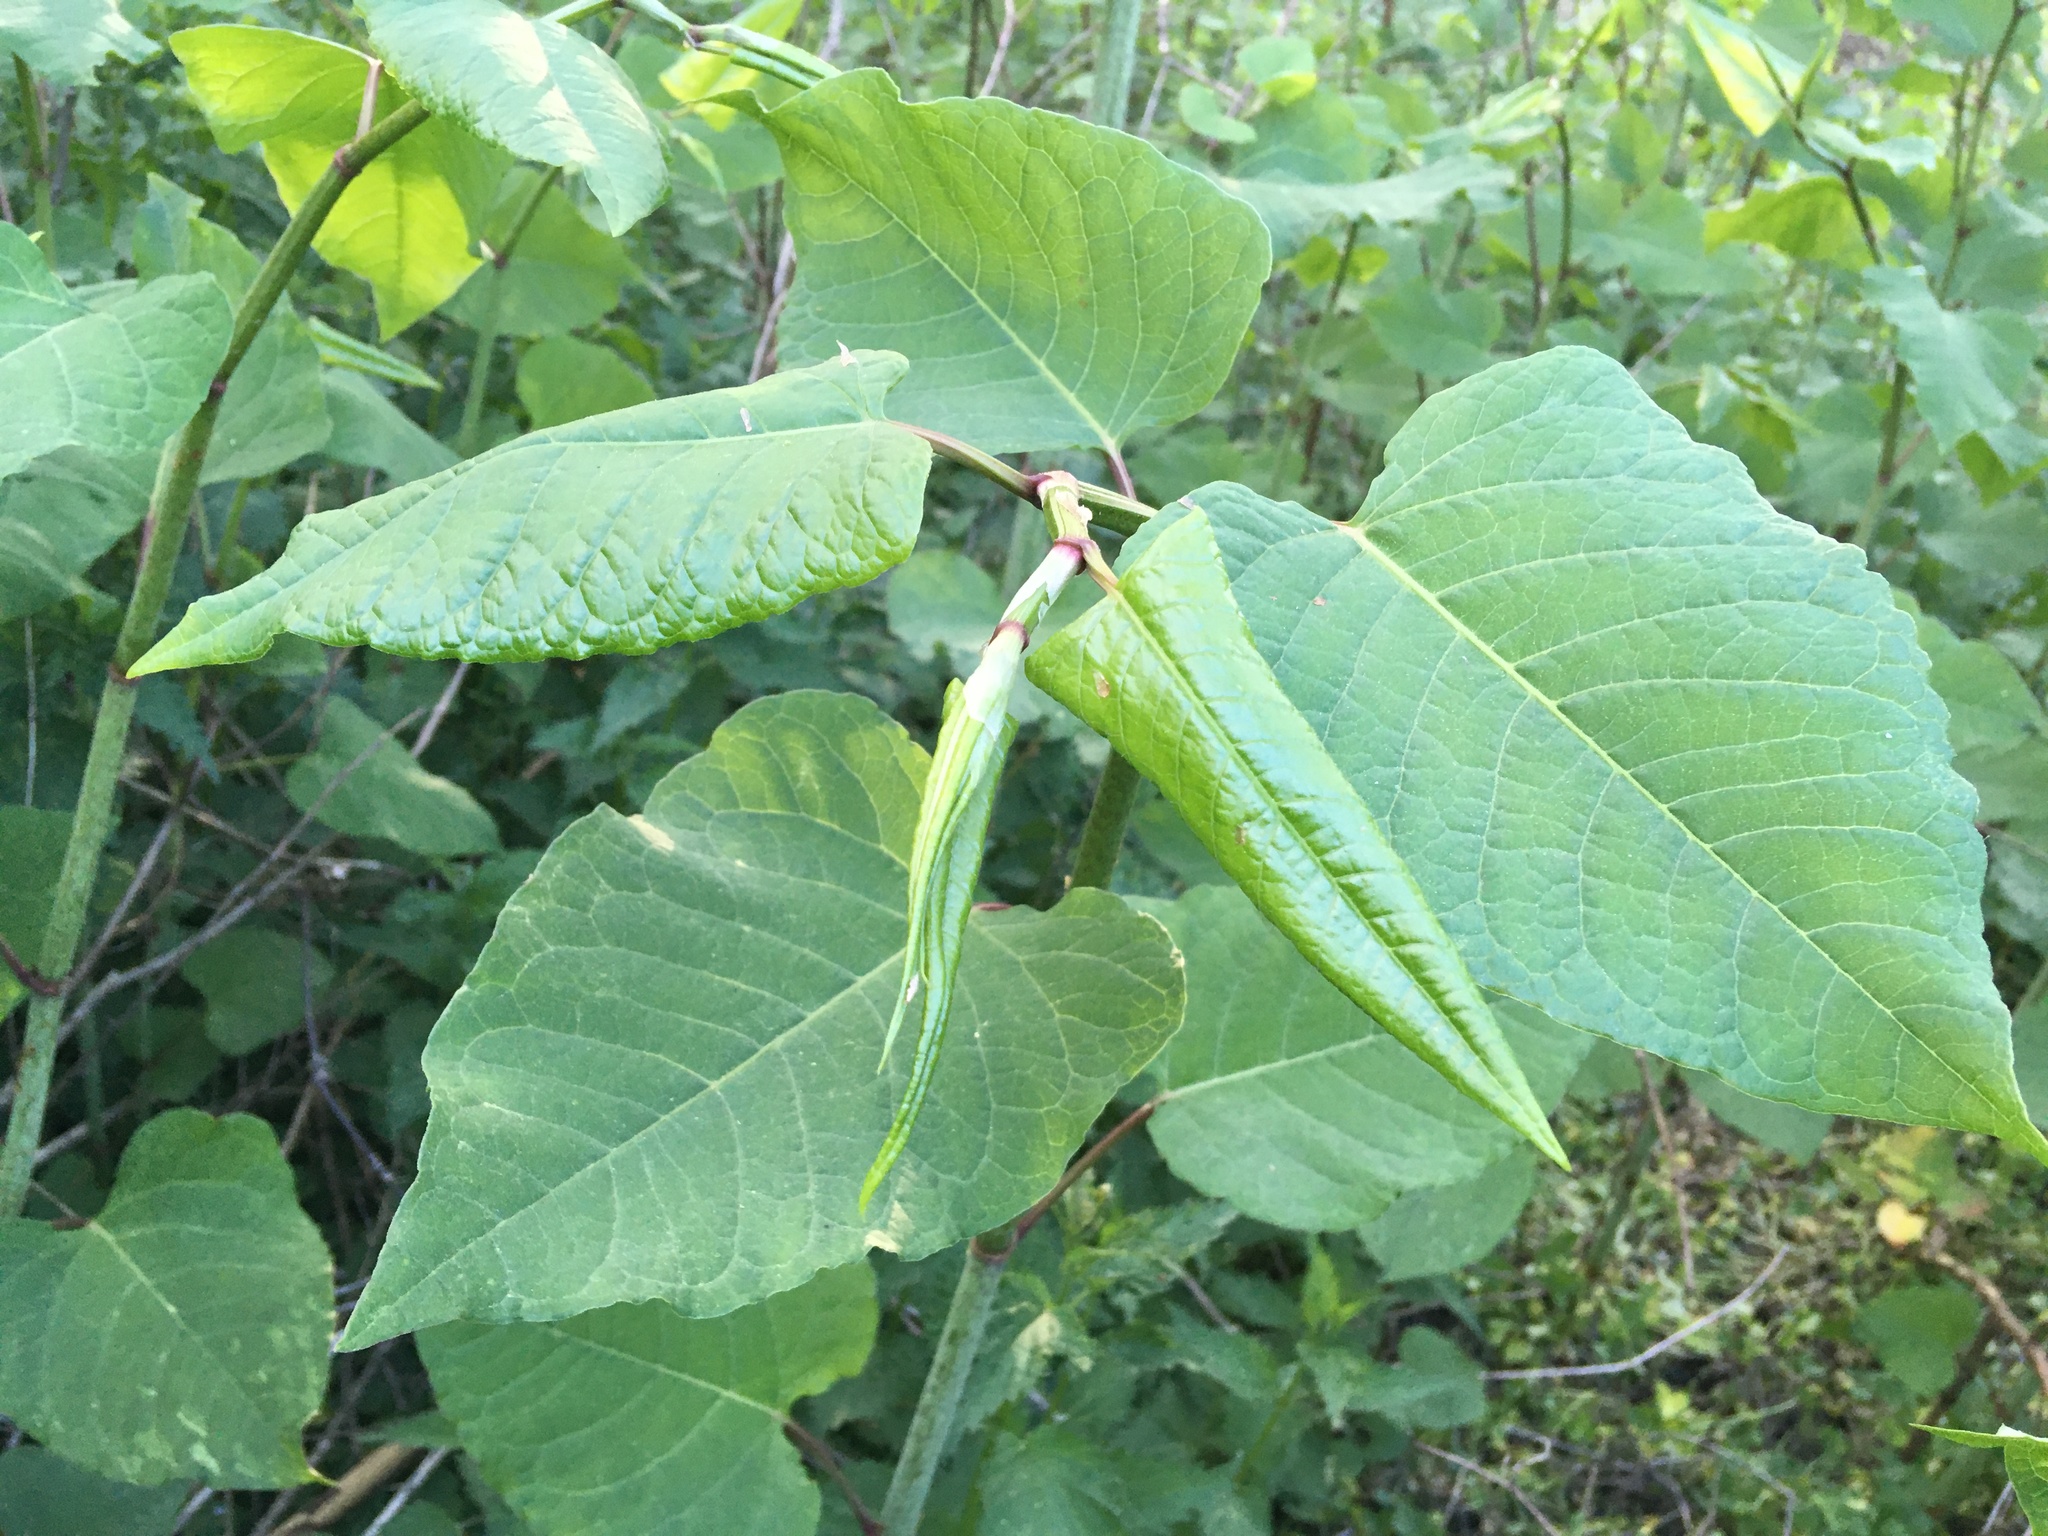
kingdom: Plantae
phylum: Tracheophyta
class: Magnoliopsida
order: Caryophyllales
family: Polygonaceae
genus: Reynoutria
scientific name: Reynoutria
